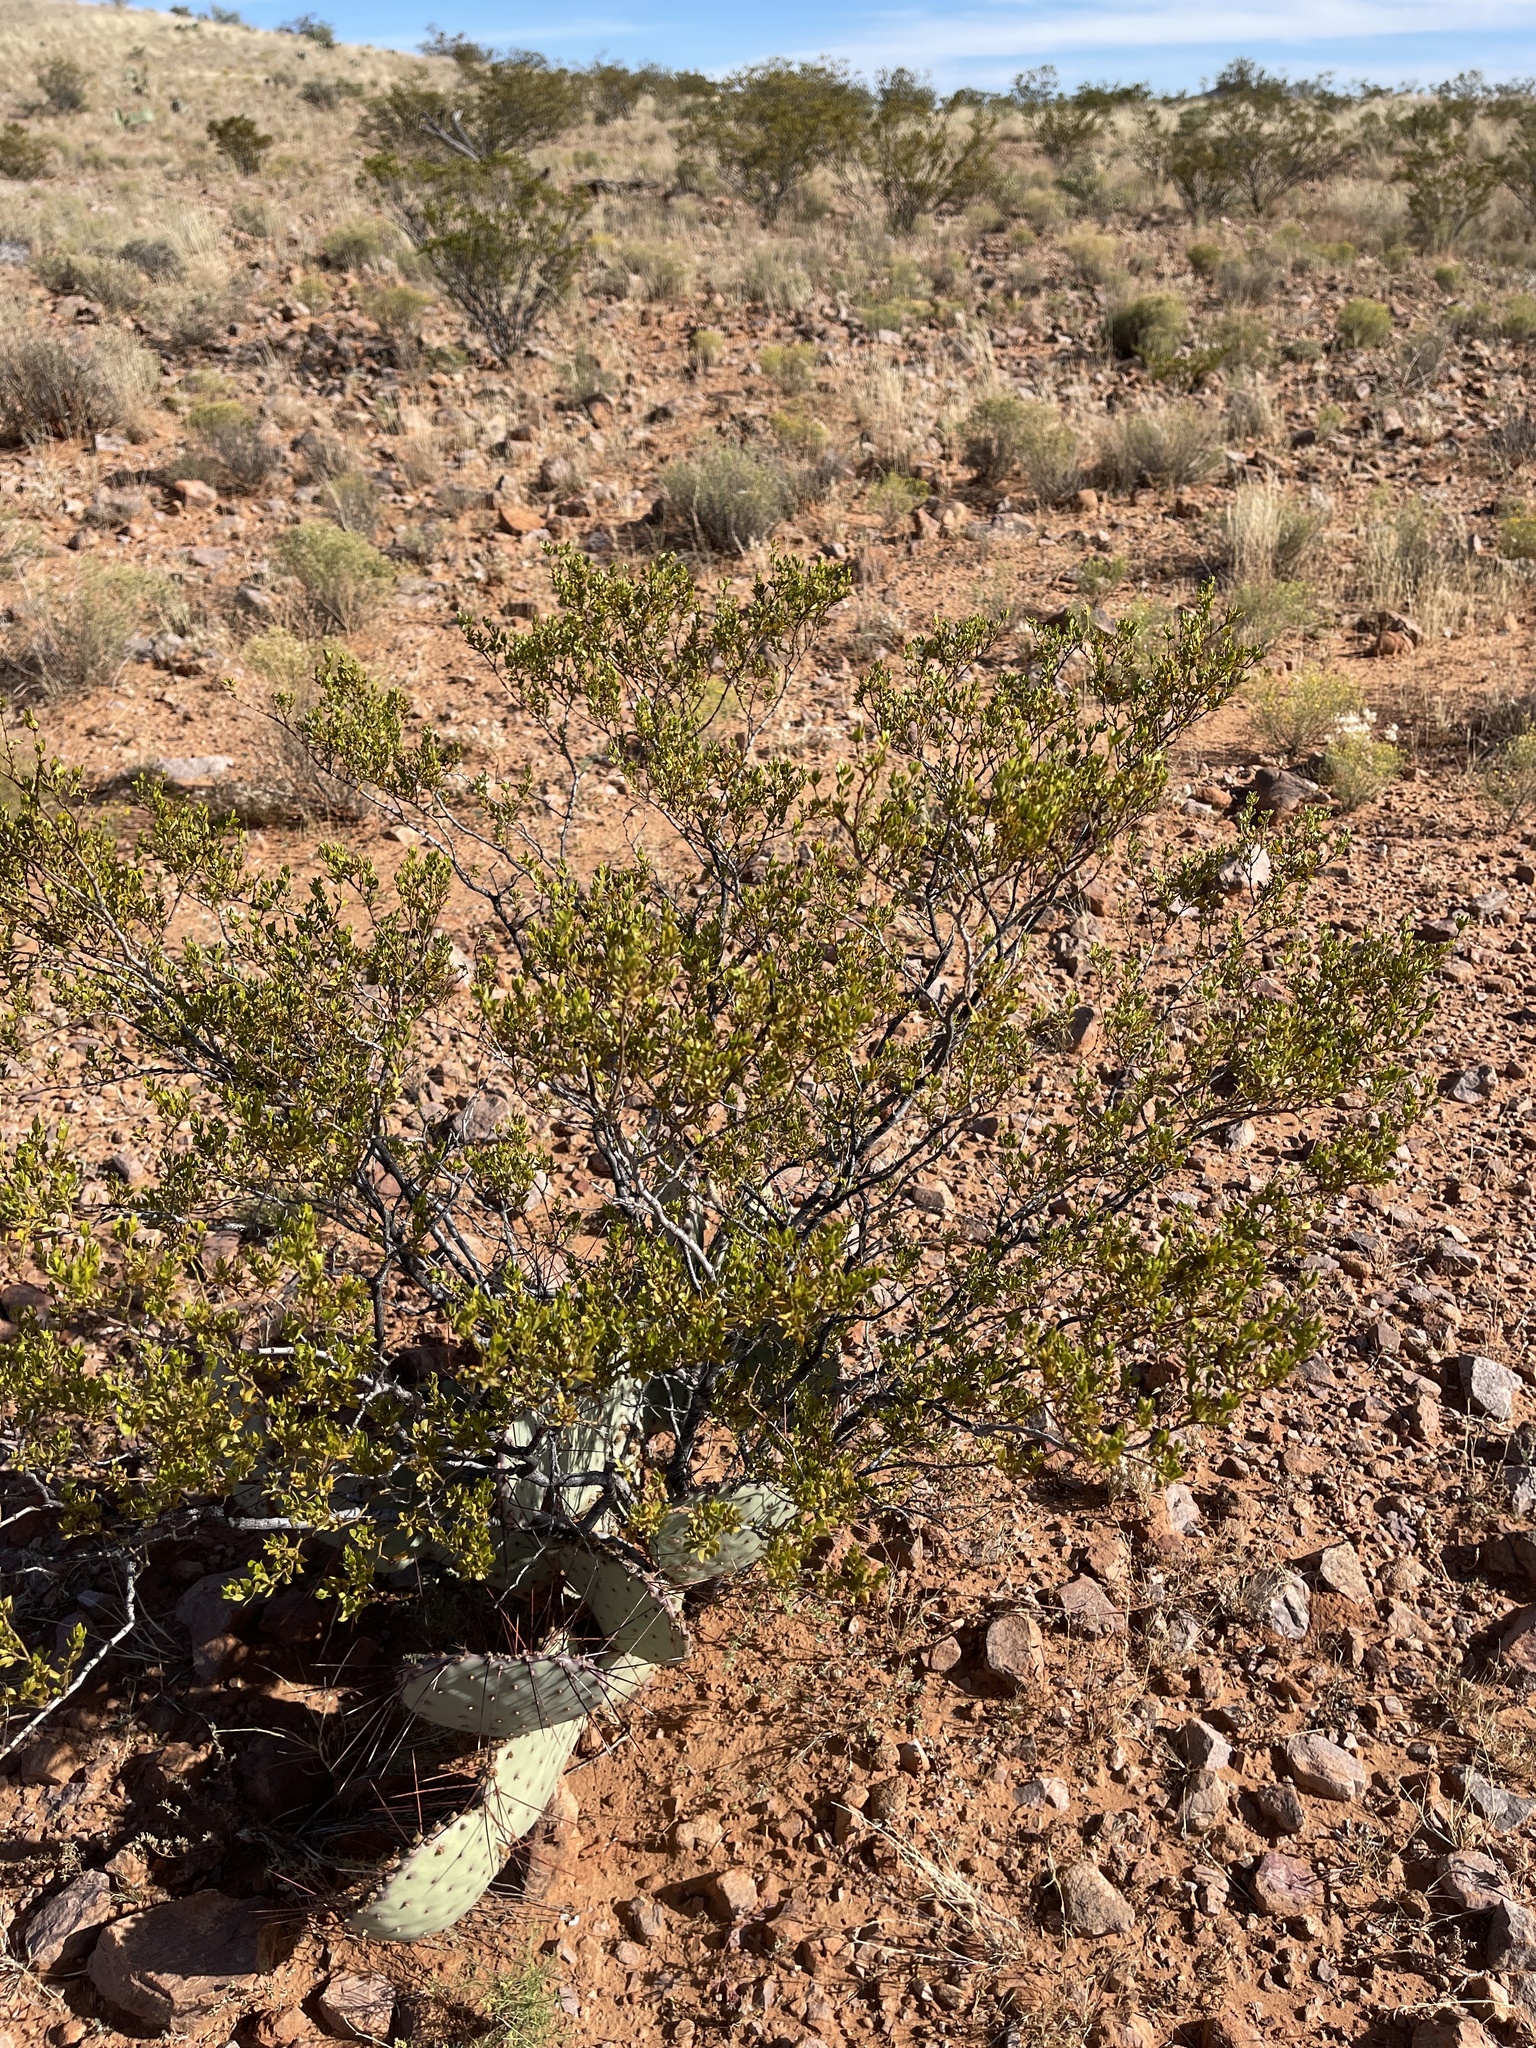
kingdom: Plantae
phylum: Tracheophyta
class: Magnoliopsida
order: Zygophyllales
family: Zygophyllaceae
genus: Larrea
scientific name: Larrea tridentata
